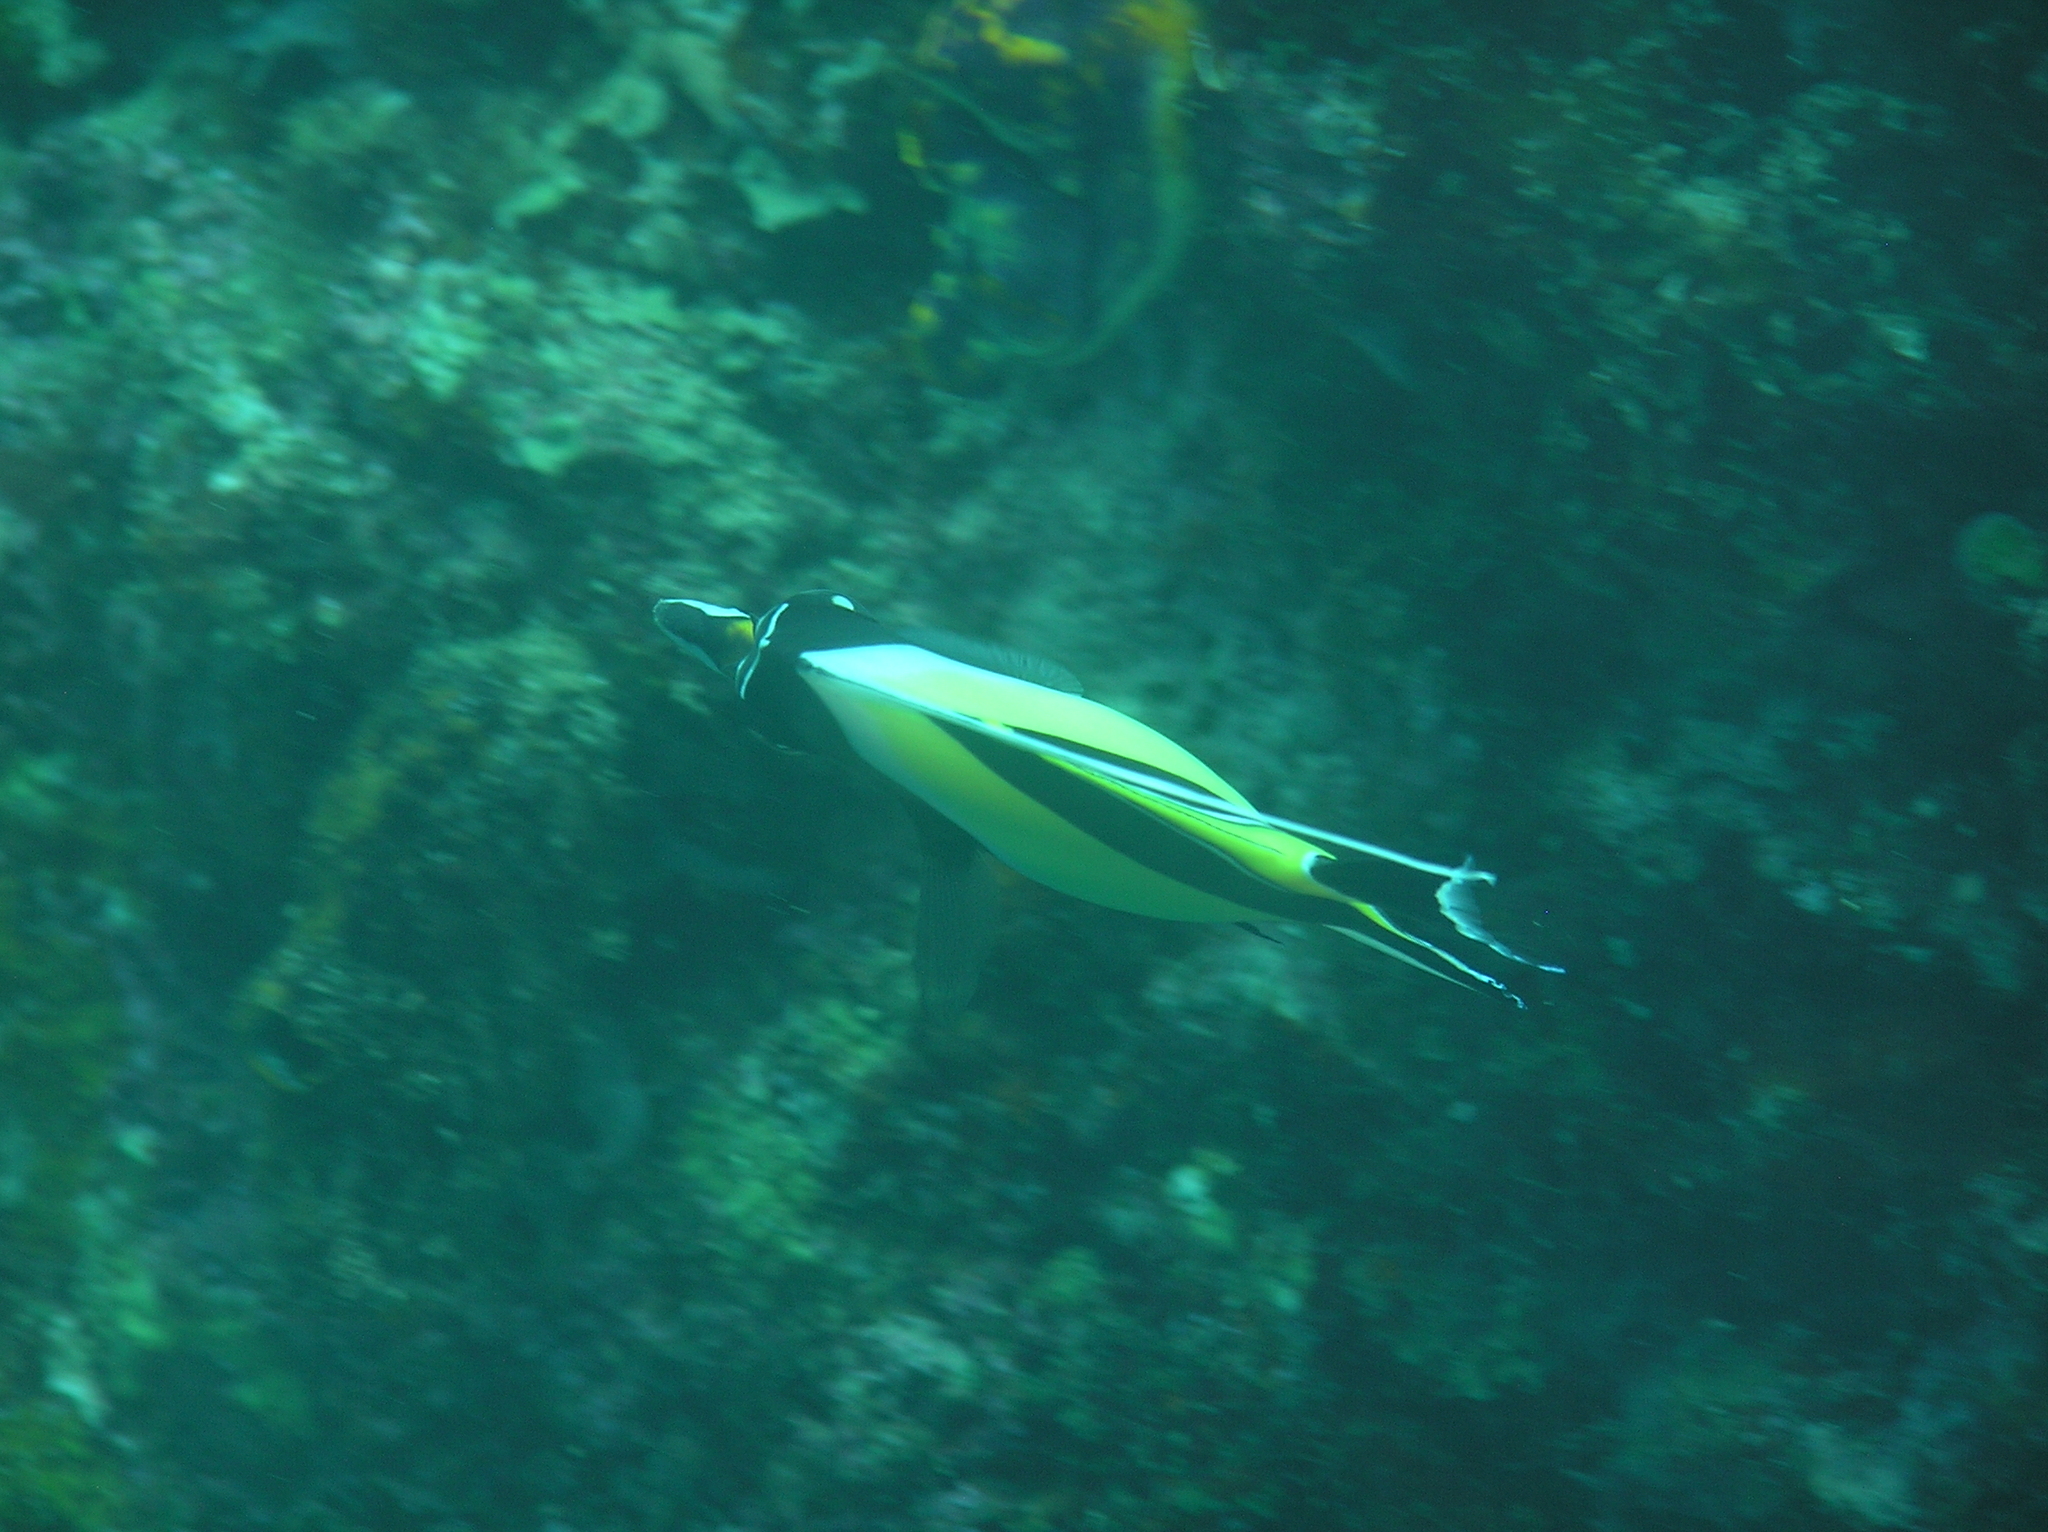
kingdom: Animalia
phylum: Chordata
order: Perciformes
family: Zanclidae
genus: Zanclus
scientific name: Zanclus cornutus
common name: Moorish idol
